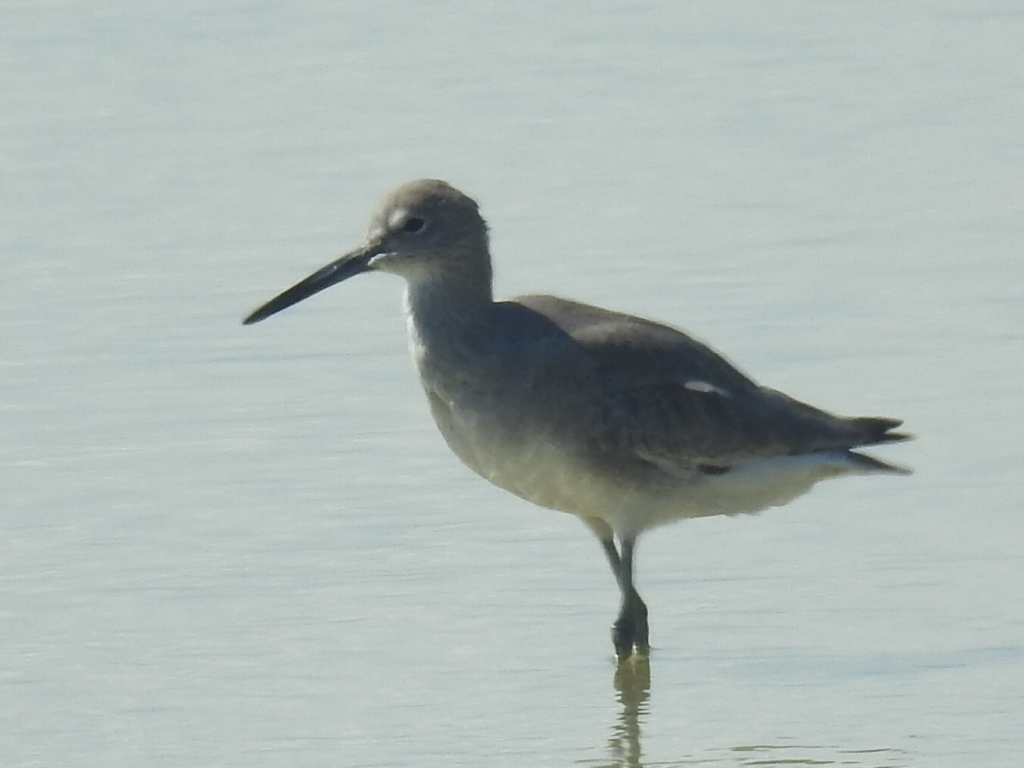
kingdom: Animalia
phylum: Chordata
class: Aves
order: Charadriiformes
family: Scolopacidae
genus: Tringa
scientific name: Tringa semipalmata
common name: Willet
